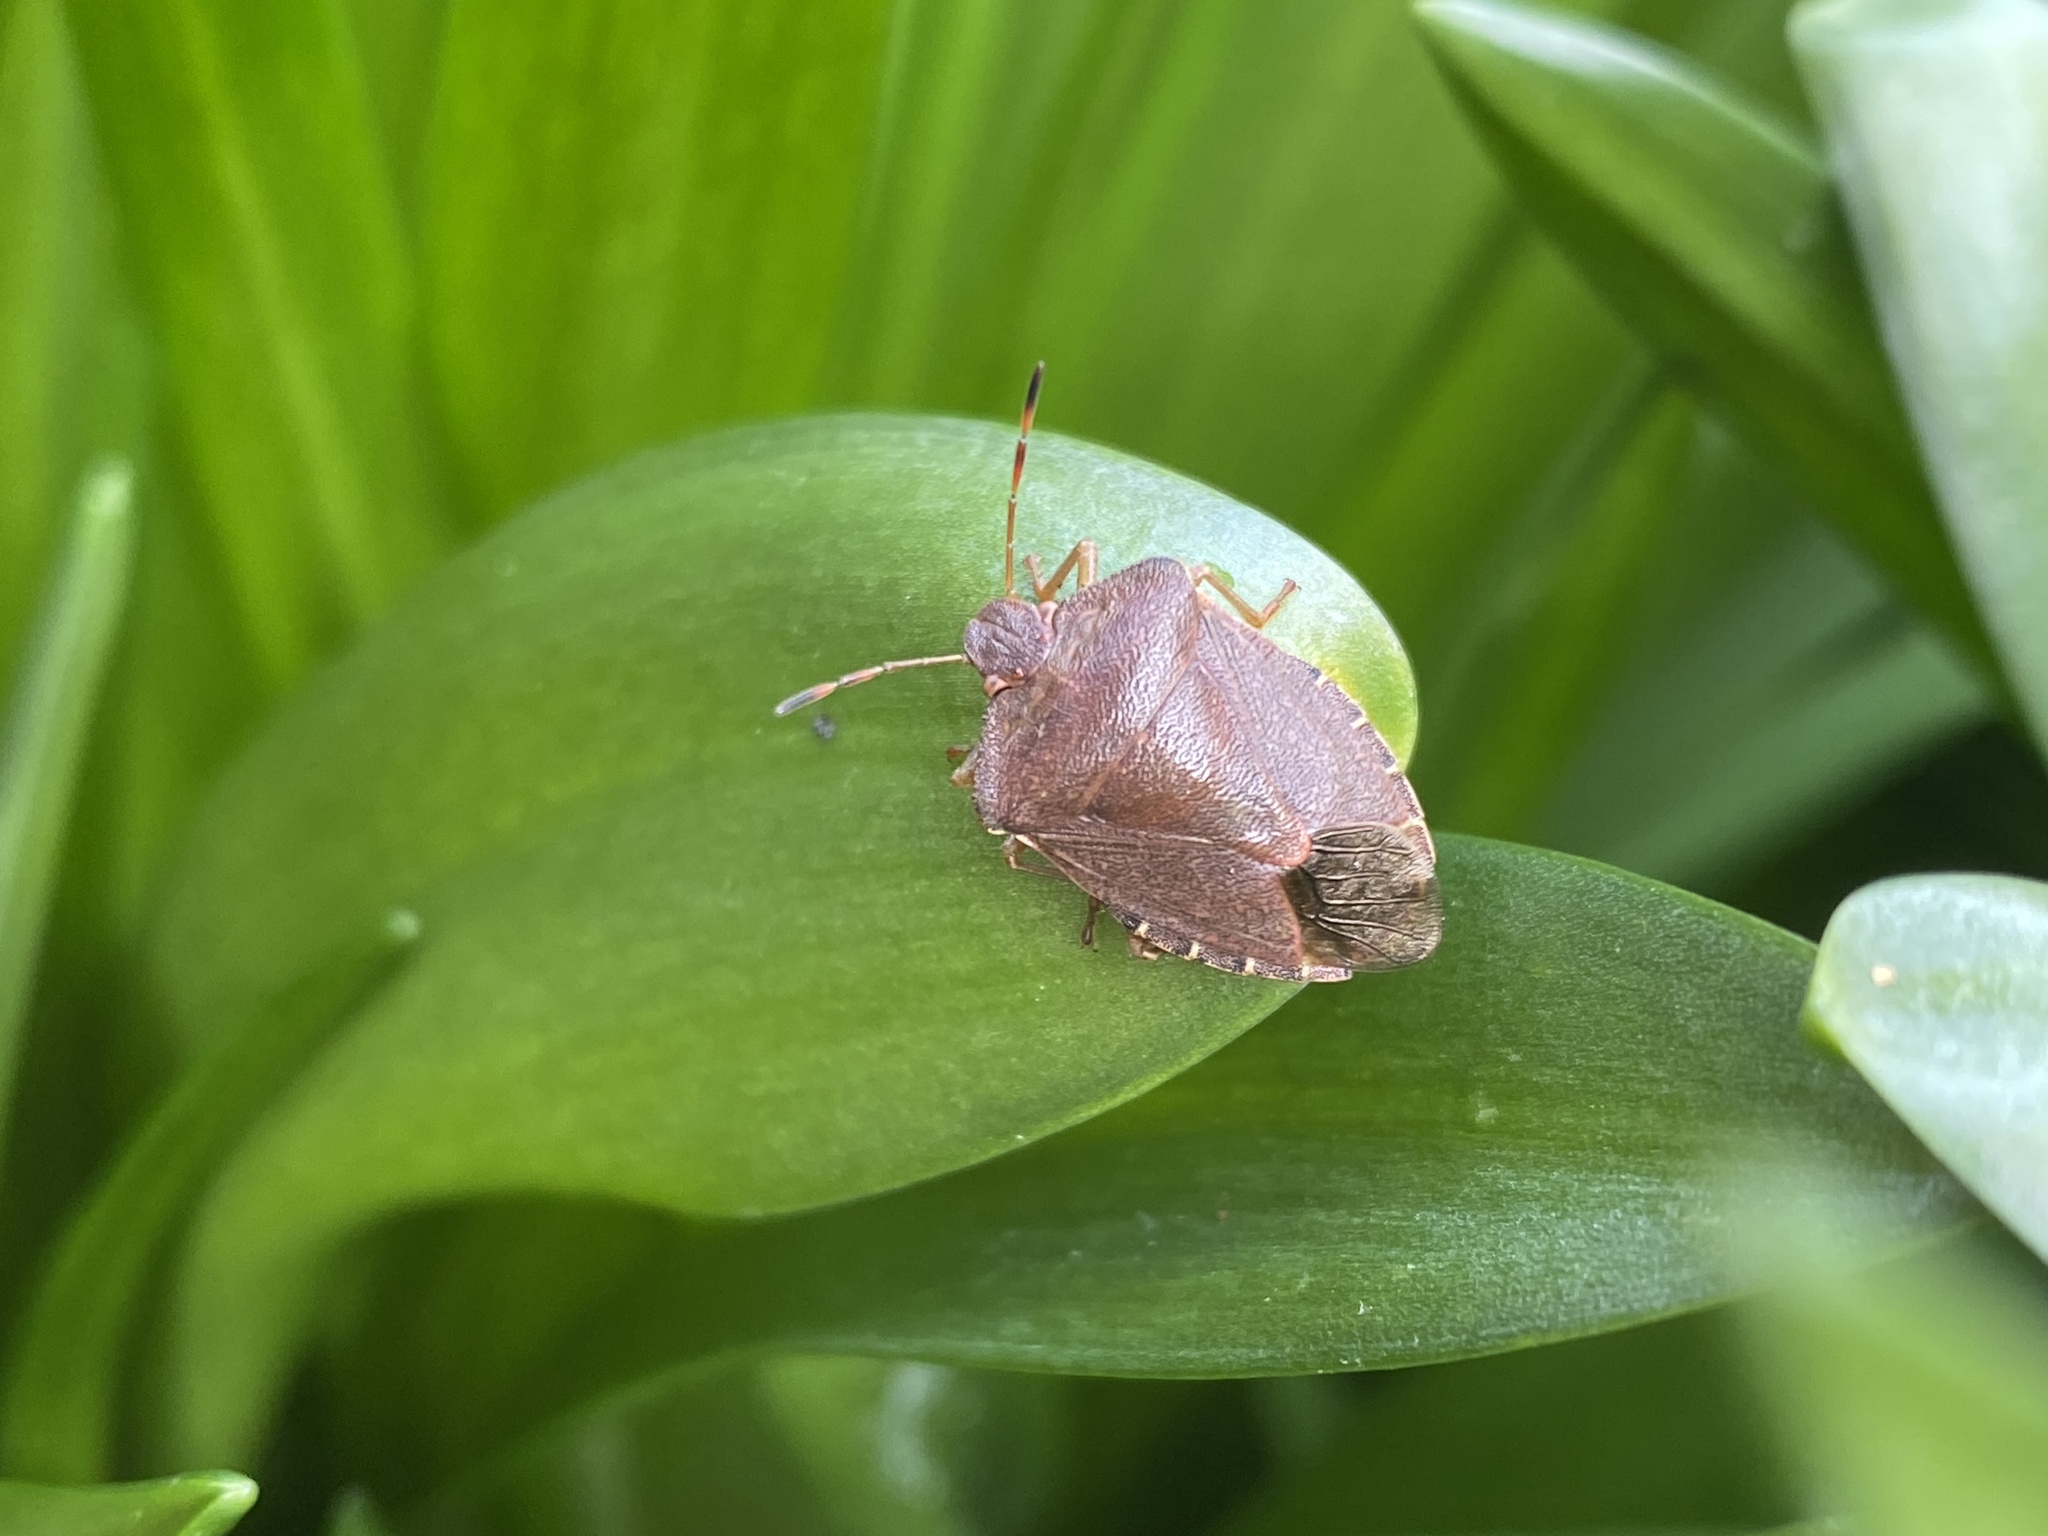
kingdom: Animalia
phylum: Arthropoda
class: Insecta
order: Hemiptera
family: Pentatomidae
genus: Palomena
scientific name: Palomena prasina
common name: Green shieldbug
